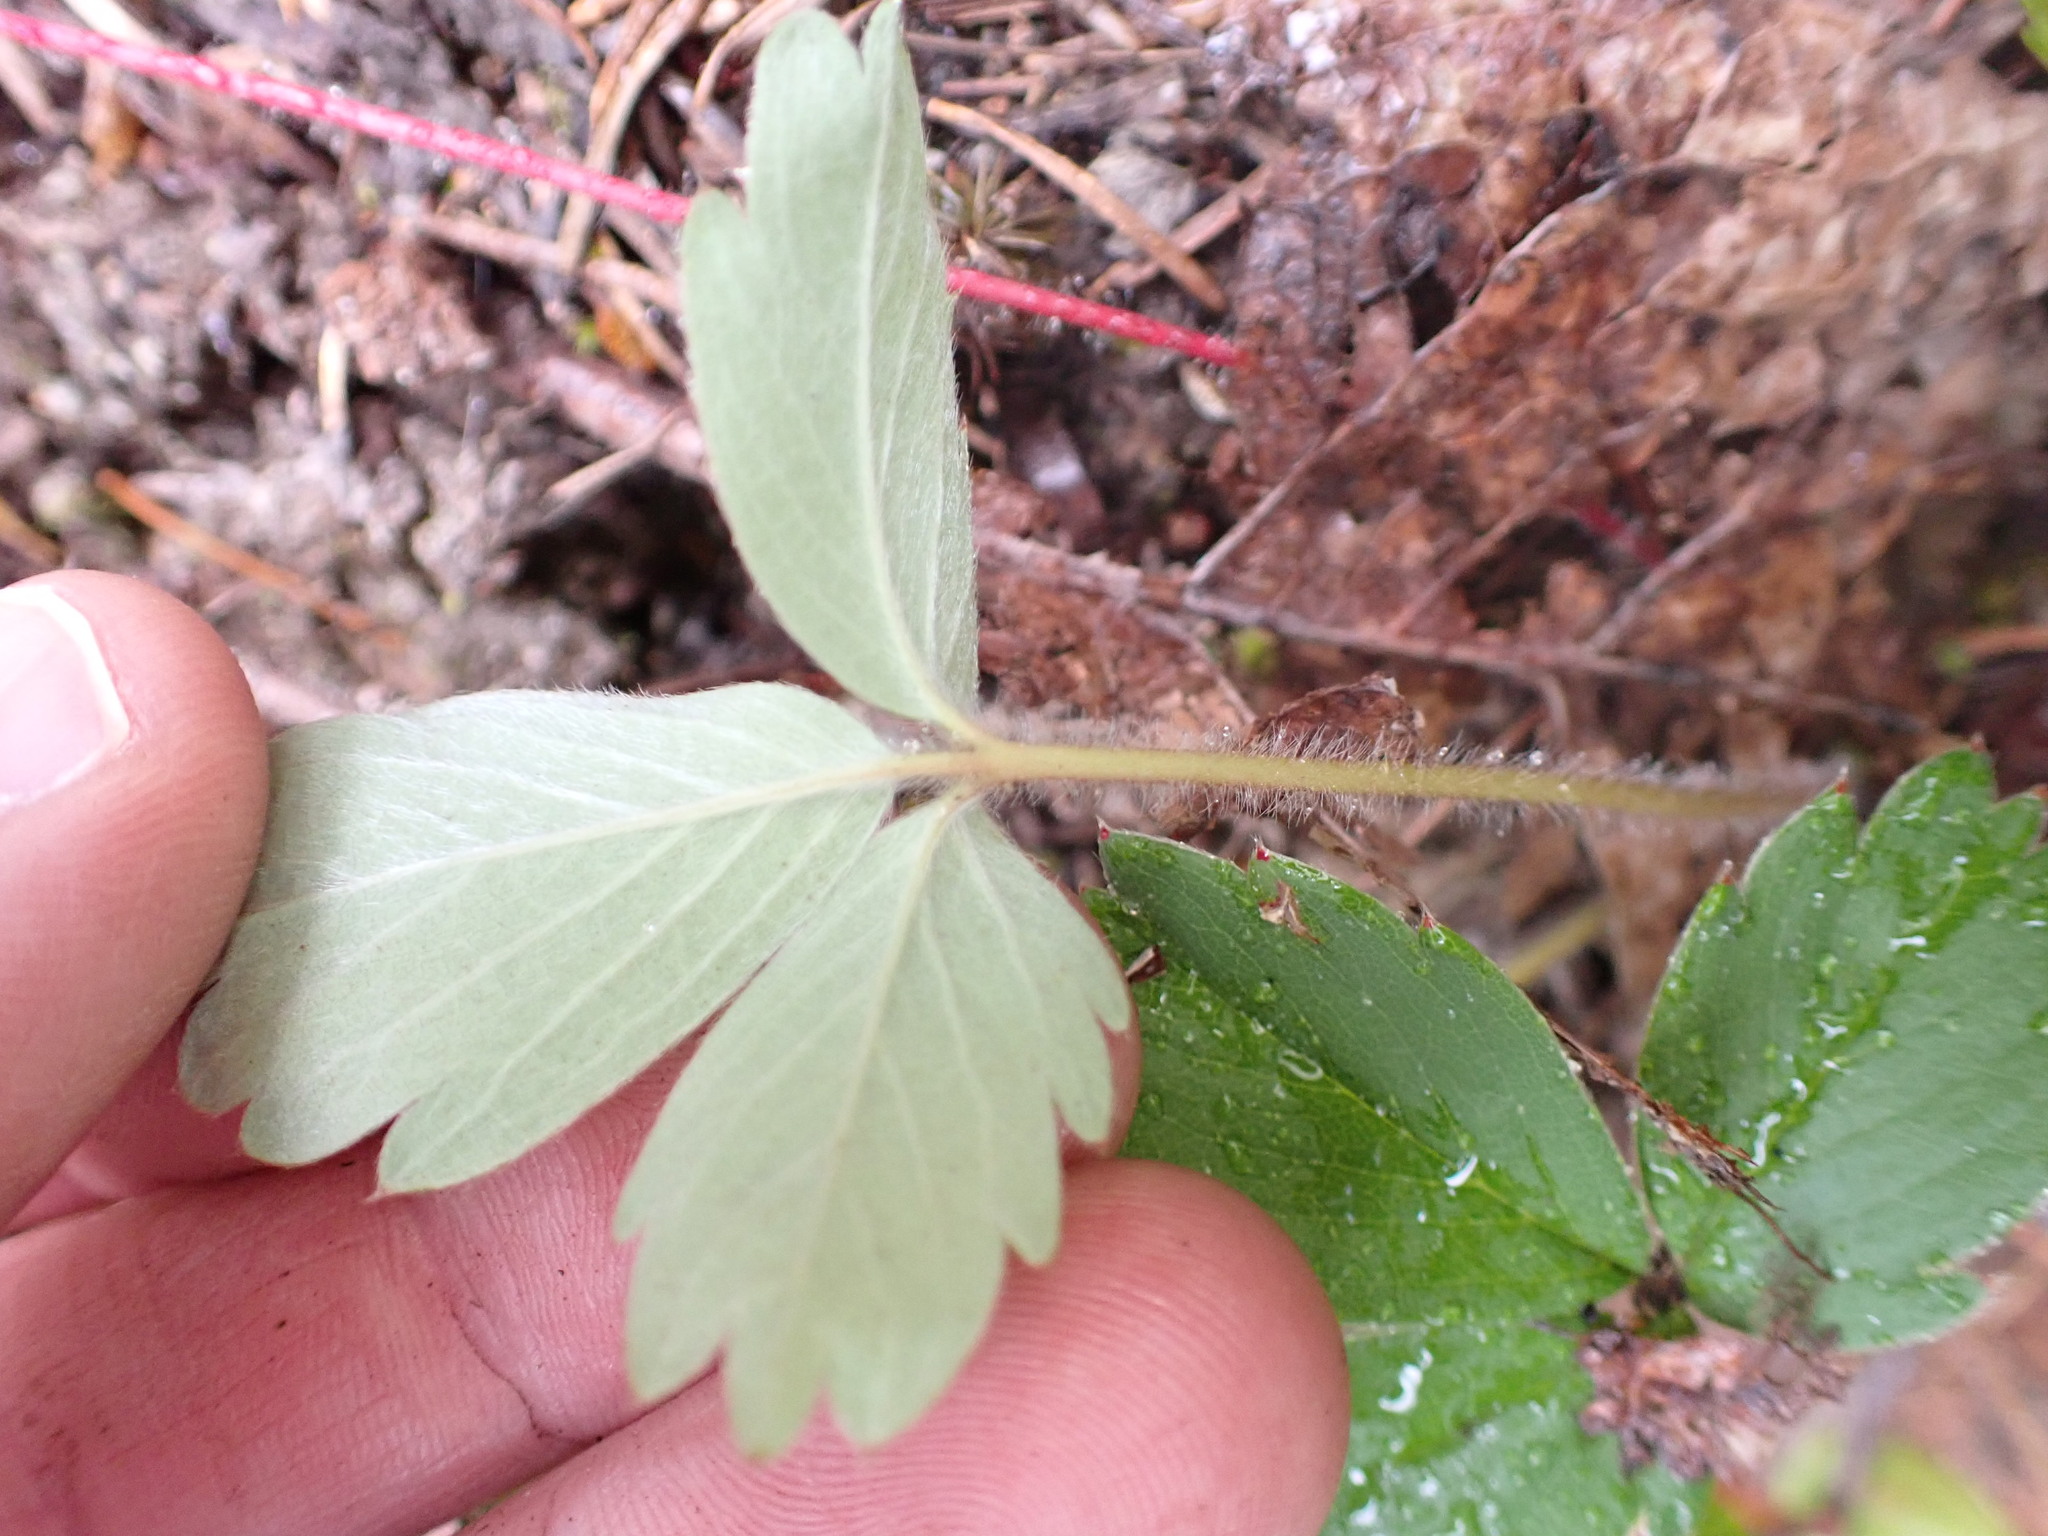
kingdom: Plantae
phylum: Tracheophyta
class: Magnoliopsida
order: Rosales
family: Rosaceae
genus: Fragaria
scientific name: Fragaria virginiana
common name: Thickleaved wild strawberry
